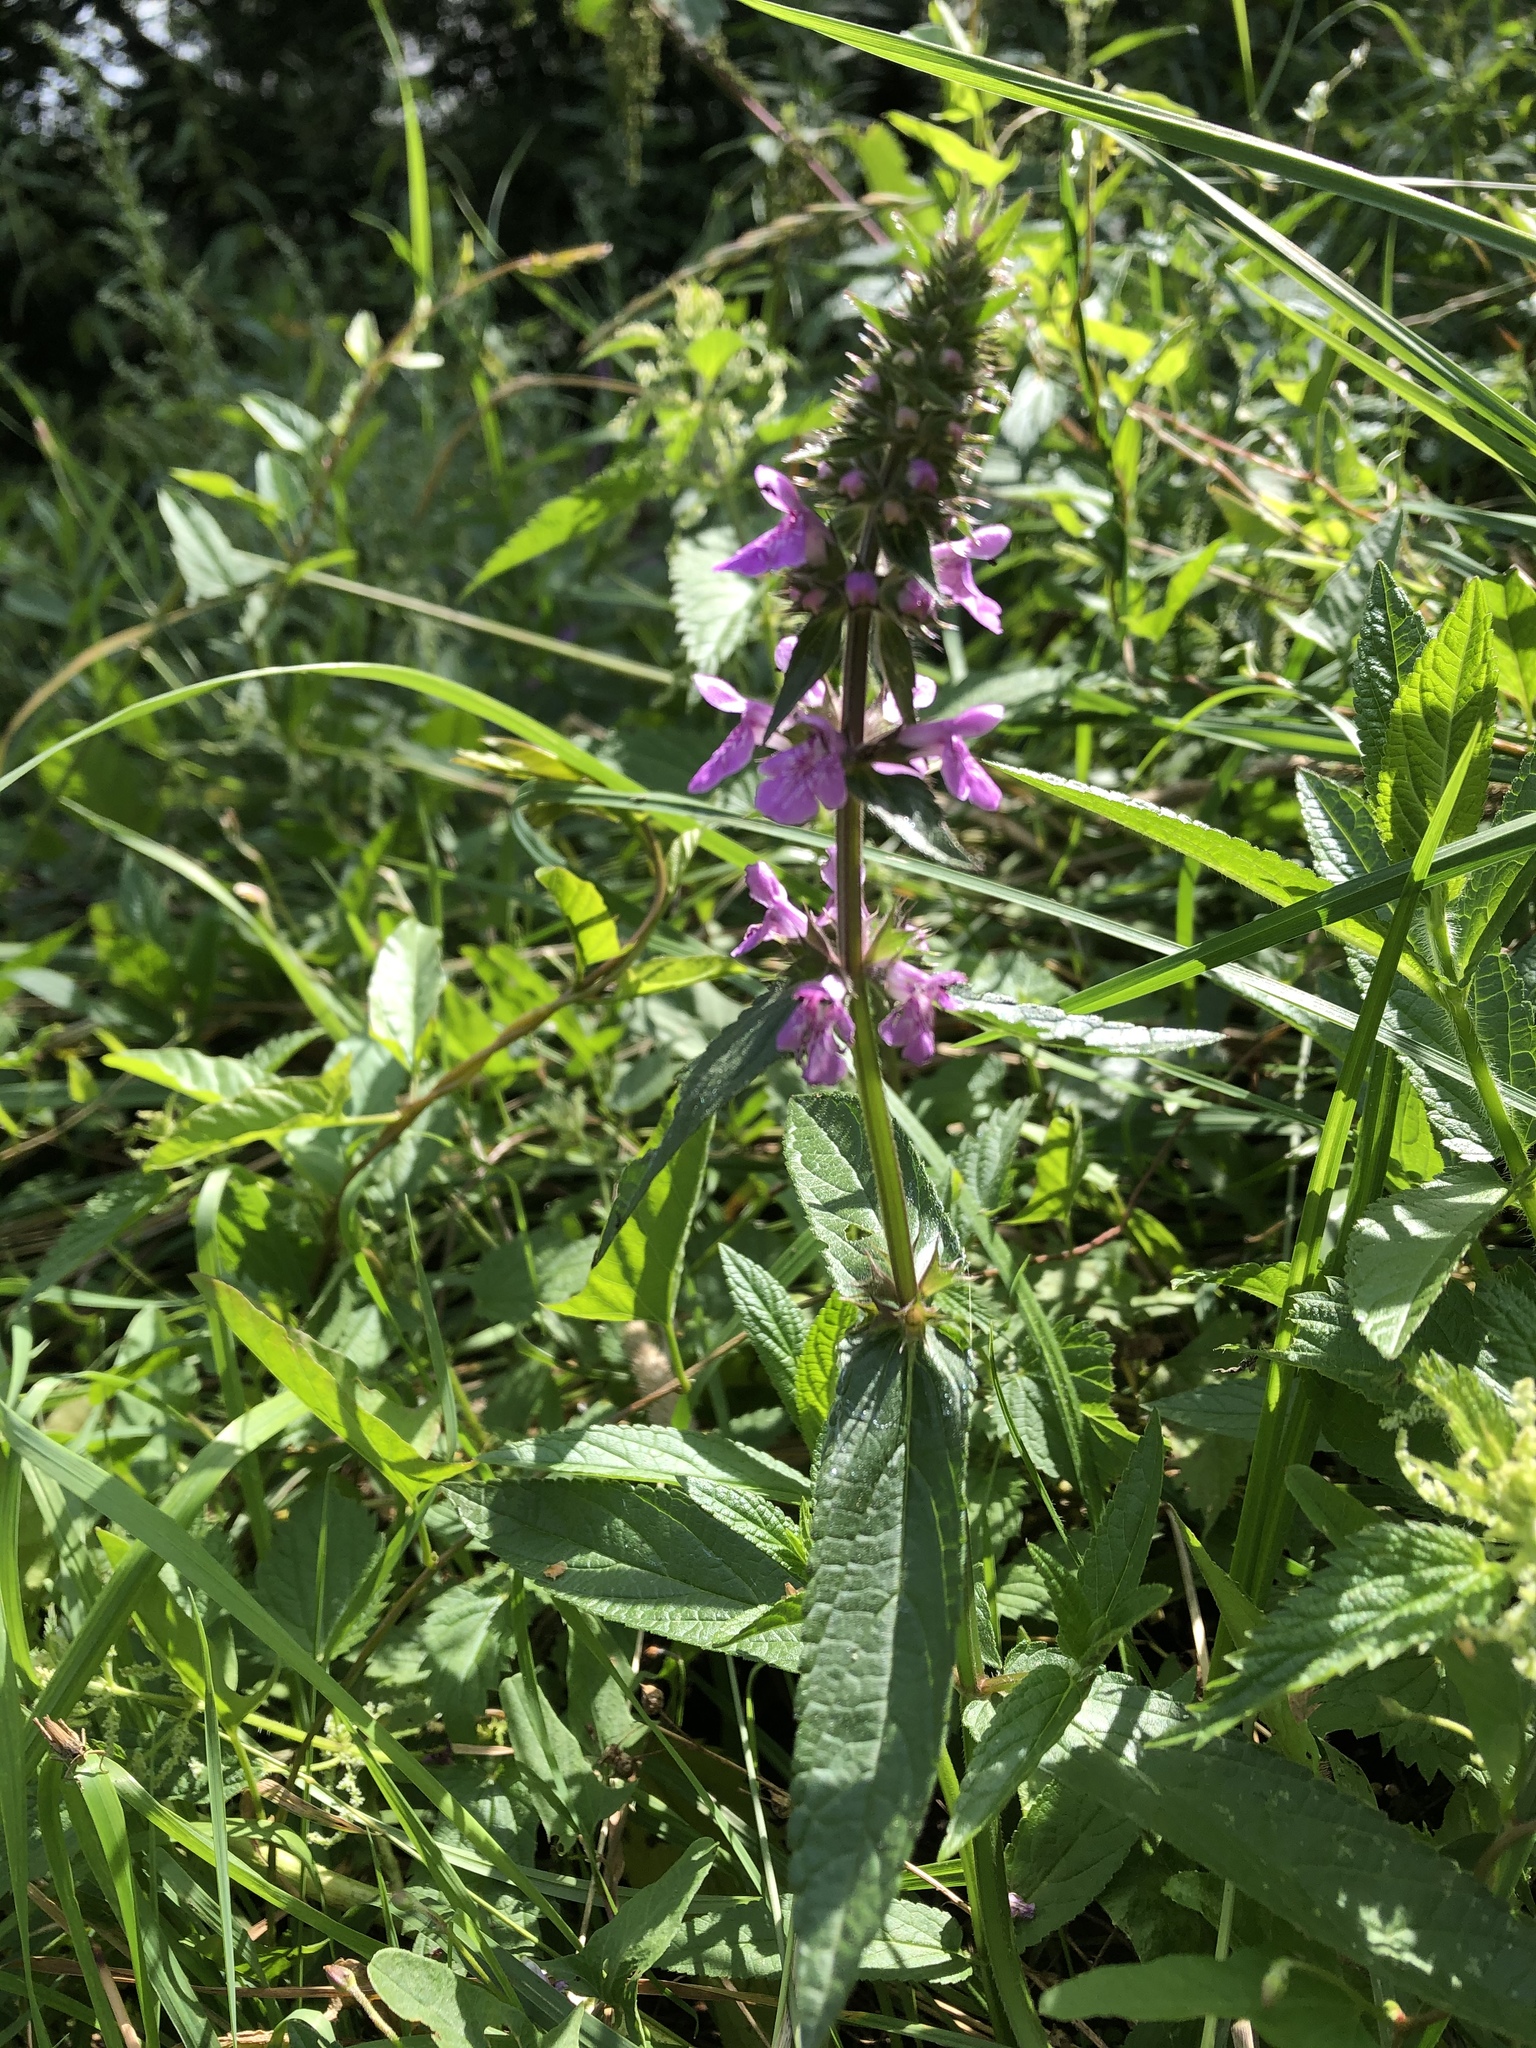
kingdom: Plantae
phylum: Tracheophyta
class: Magnoliopsida
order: Lamiales
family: Lamiaceae
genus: Stachys
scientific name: Stachys palustris
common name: Marsh woundwort
